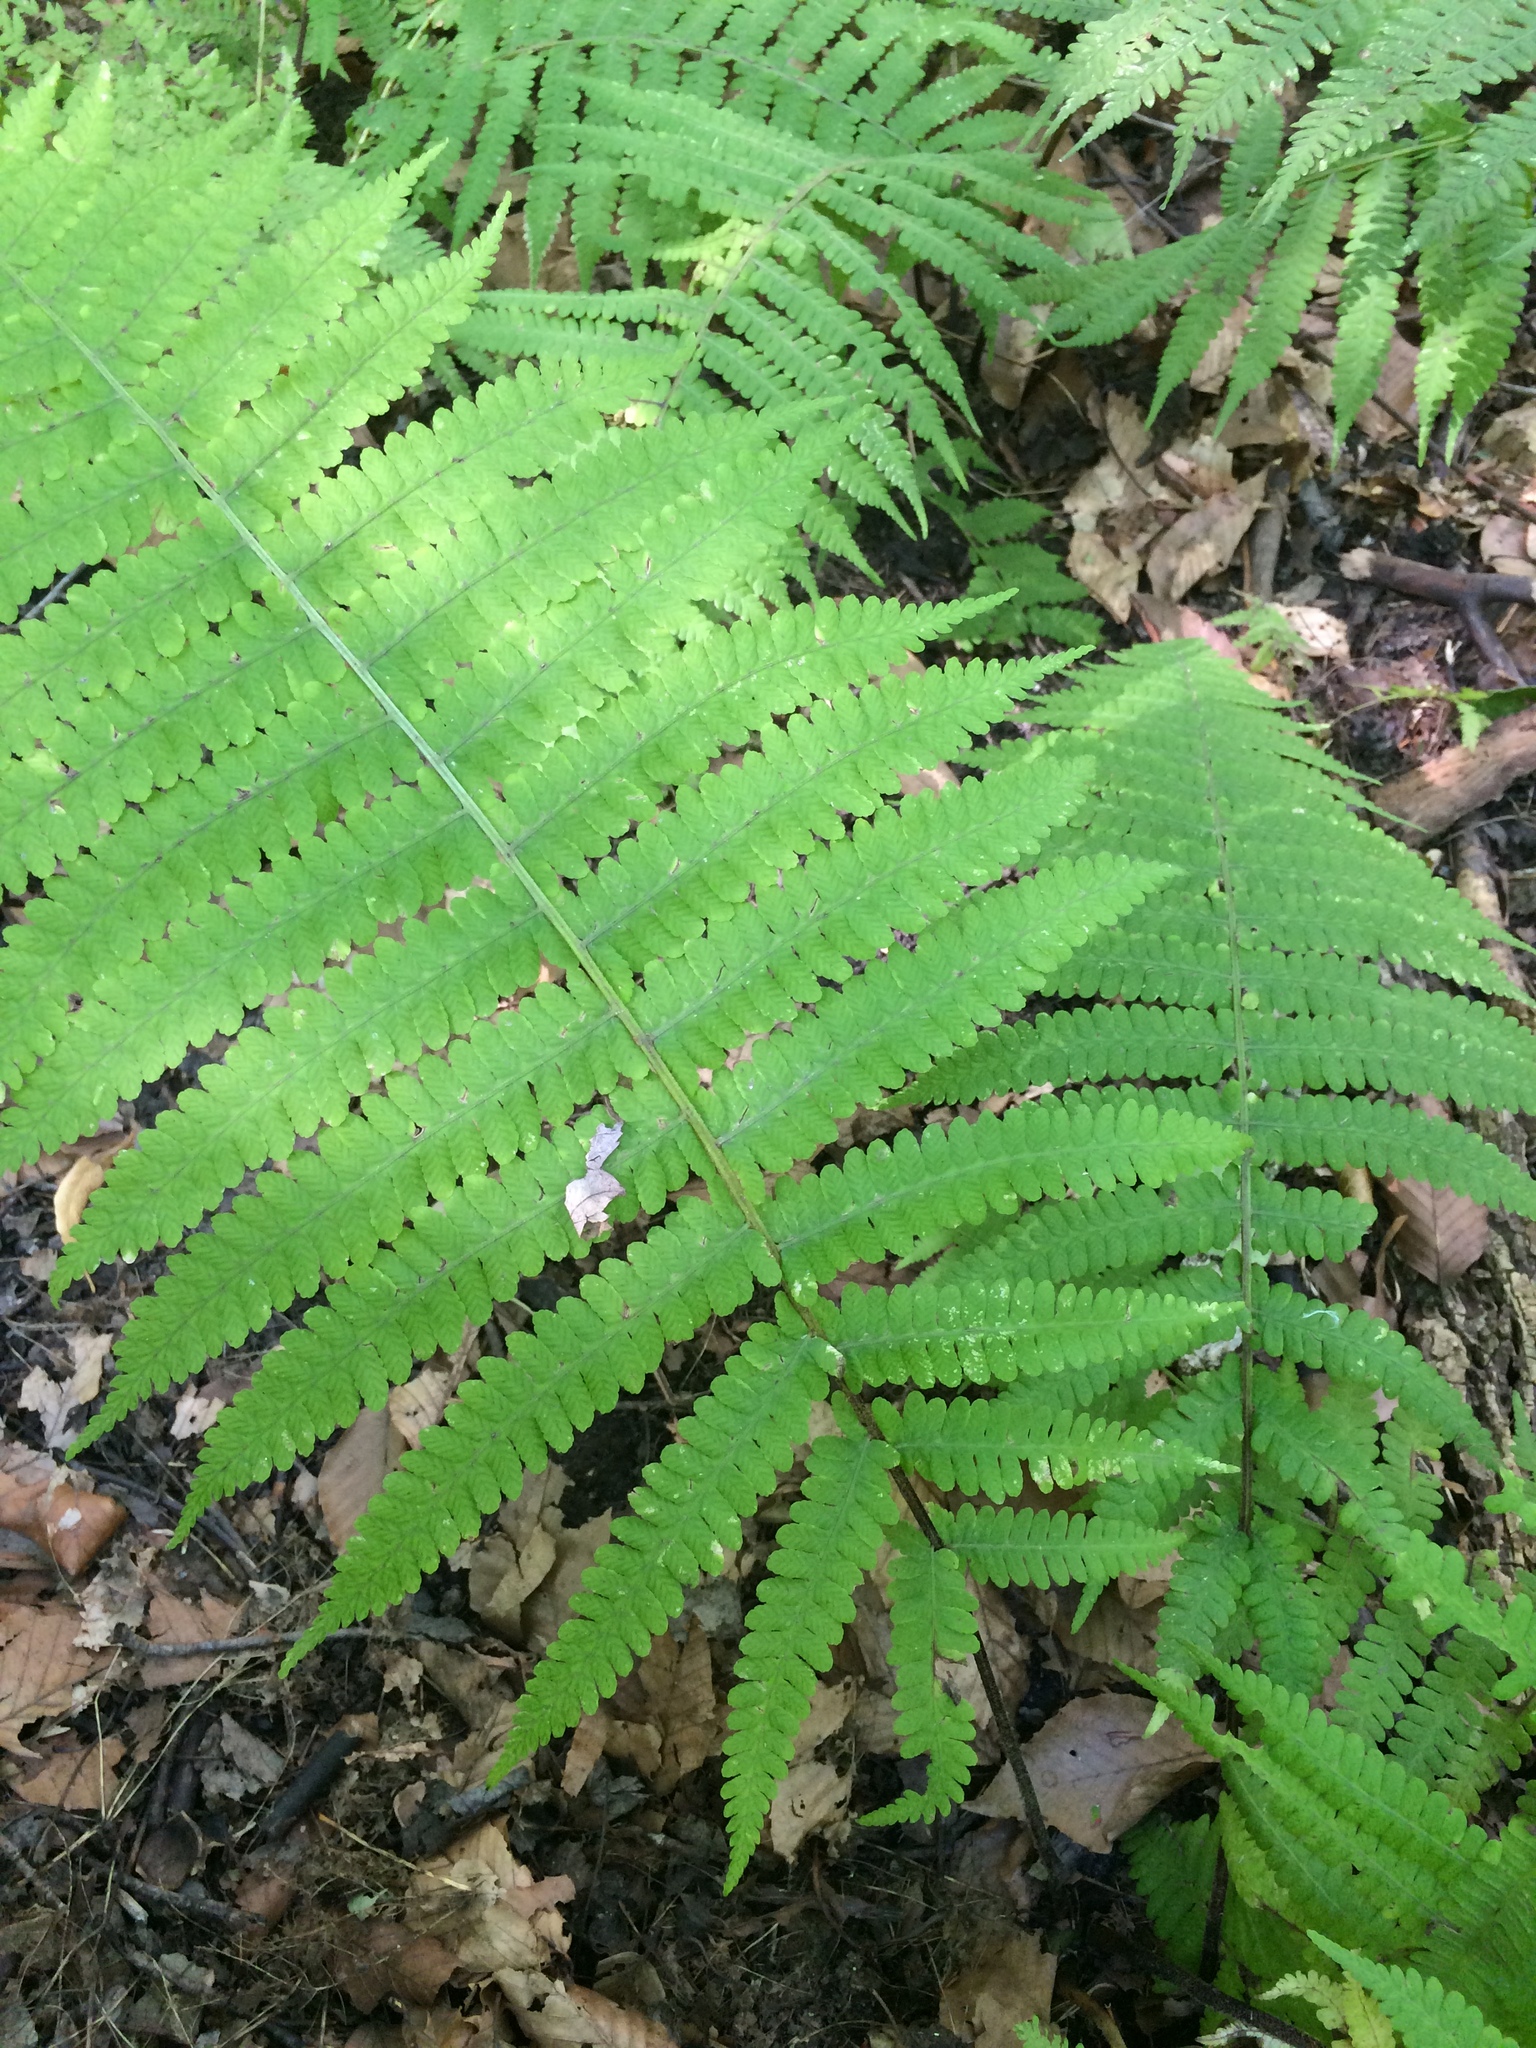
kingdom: Plantae
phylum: Tracheophyta
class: Polypodiopsida
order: Polypodiales
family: Athyriaceae
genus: Deparia
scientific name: Deparia acrostichoides
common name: Silver false spleenwort
